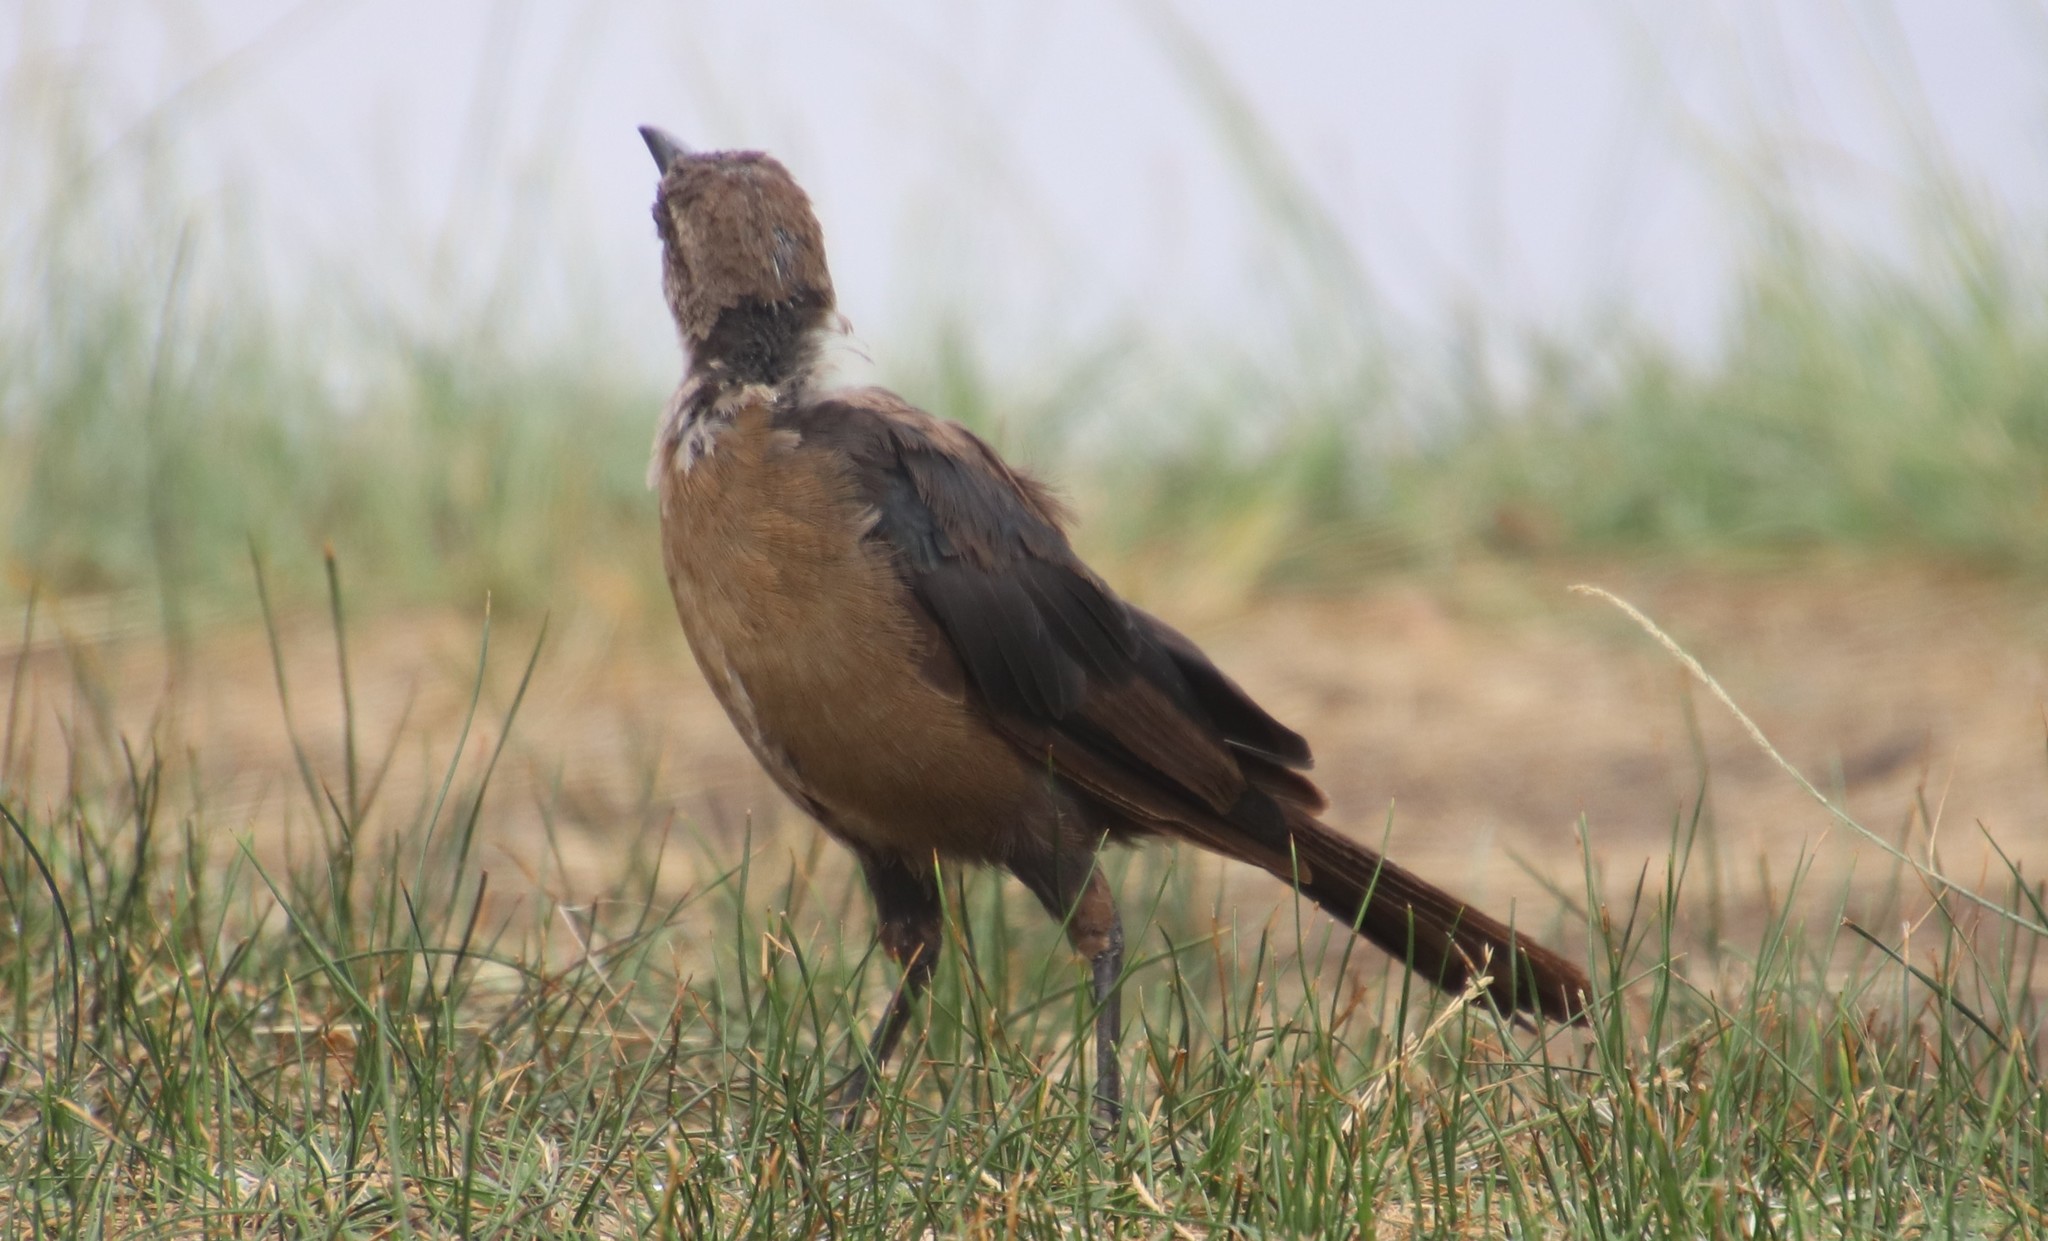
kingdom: Animalia
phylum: Chordata
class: Aves
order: Passeriformes
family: Icteridae
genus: Quiscalus
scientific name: Quiscalus mexicanus
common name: Great-tailed grackle
